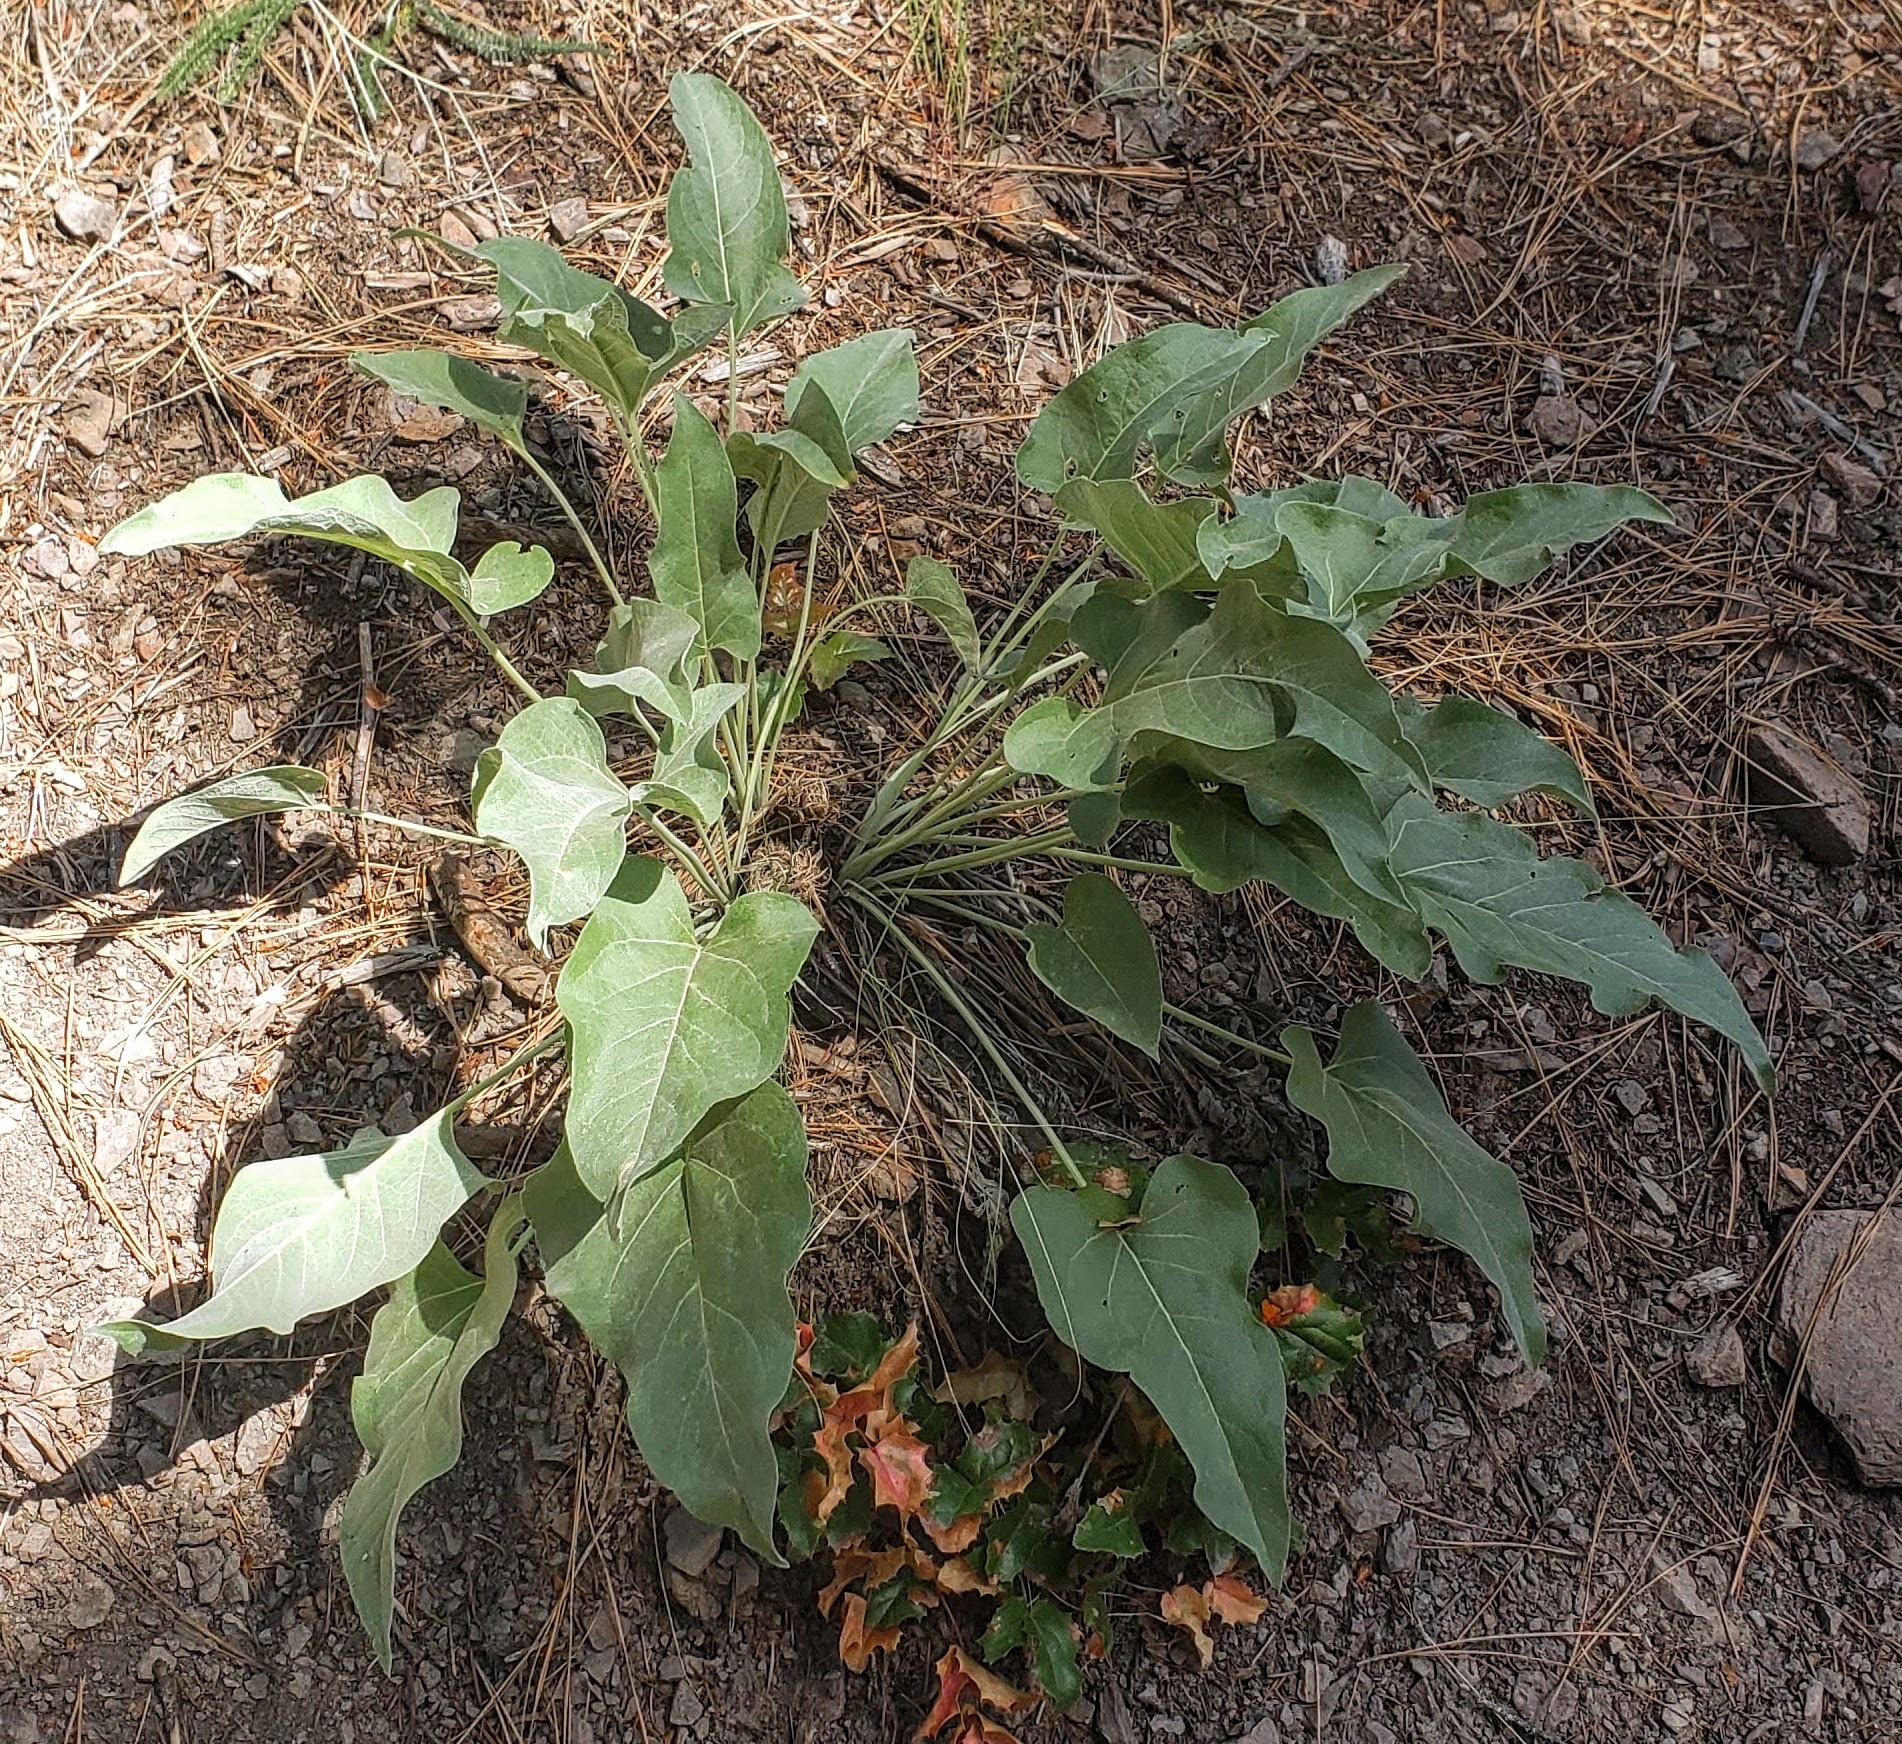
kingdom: Plantae
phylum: Tracheophyta
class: Magnoliopsida
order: Asterales
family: Asteraceae
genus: Wyethia
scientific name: Wyethia sagittata
